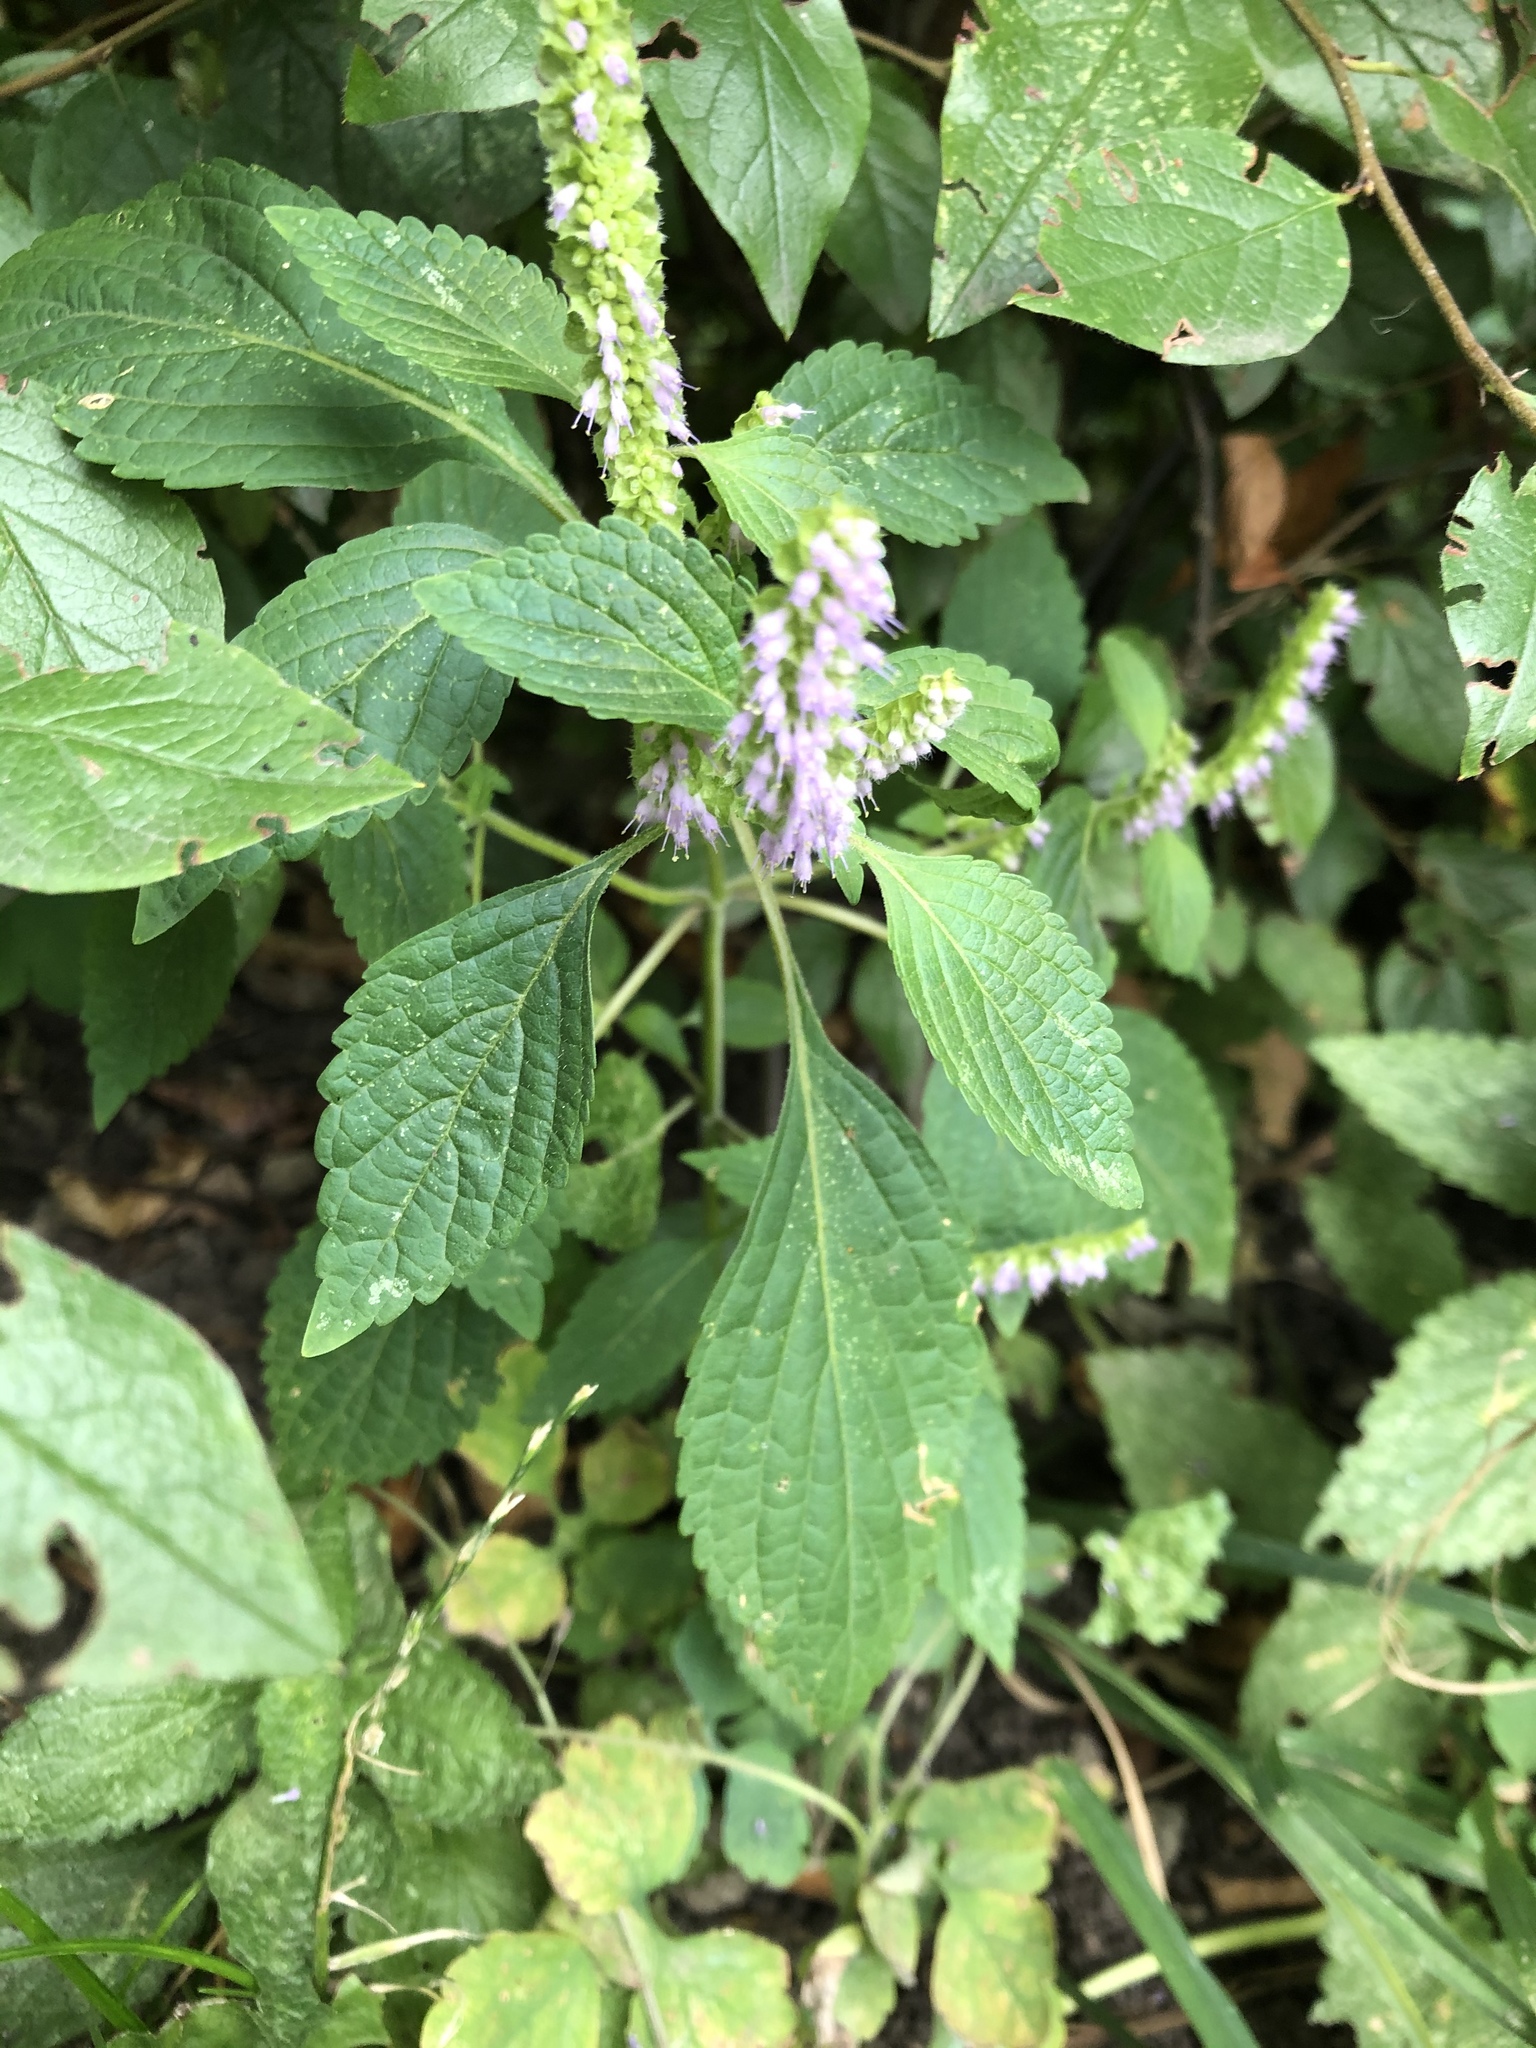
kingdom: Plantae
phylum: Tracheophyta
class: Magnoliopsida
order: Lamiales
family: Lamiaceae
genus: Elsholtzia
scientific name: Elsholtzia ciliata
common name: Ciliate elsholtzia
